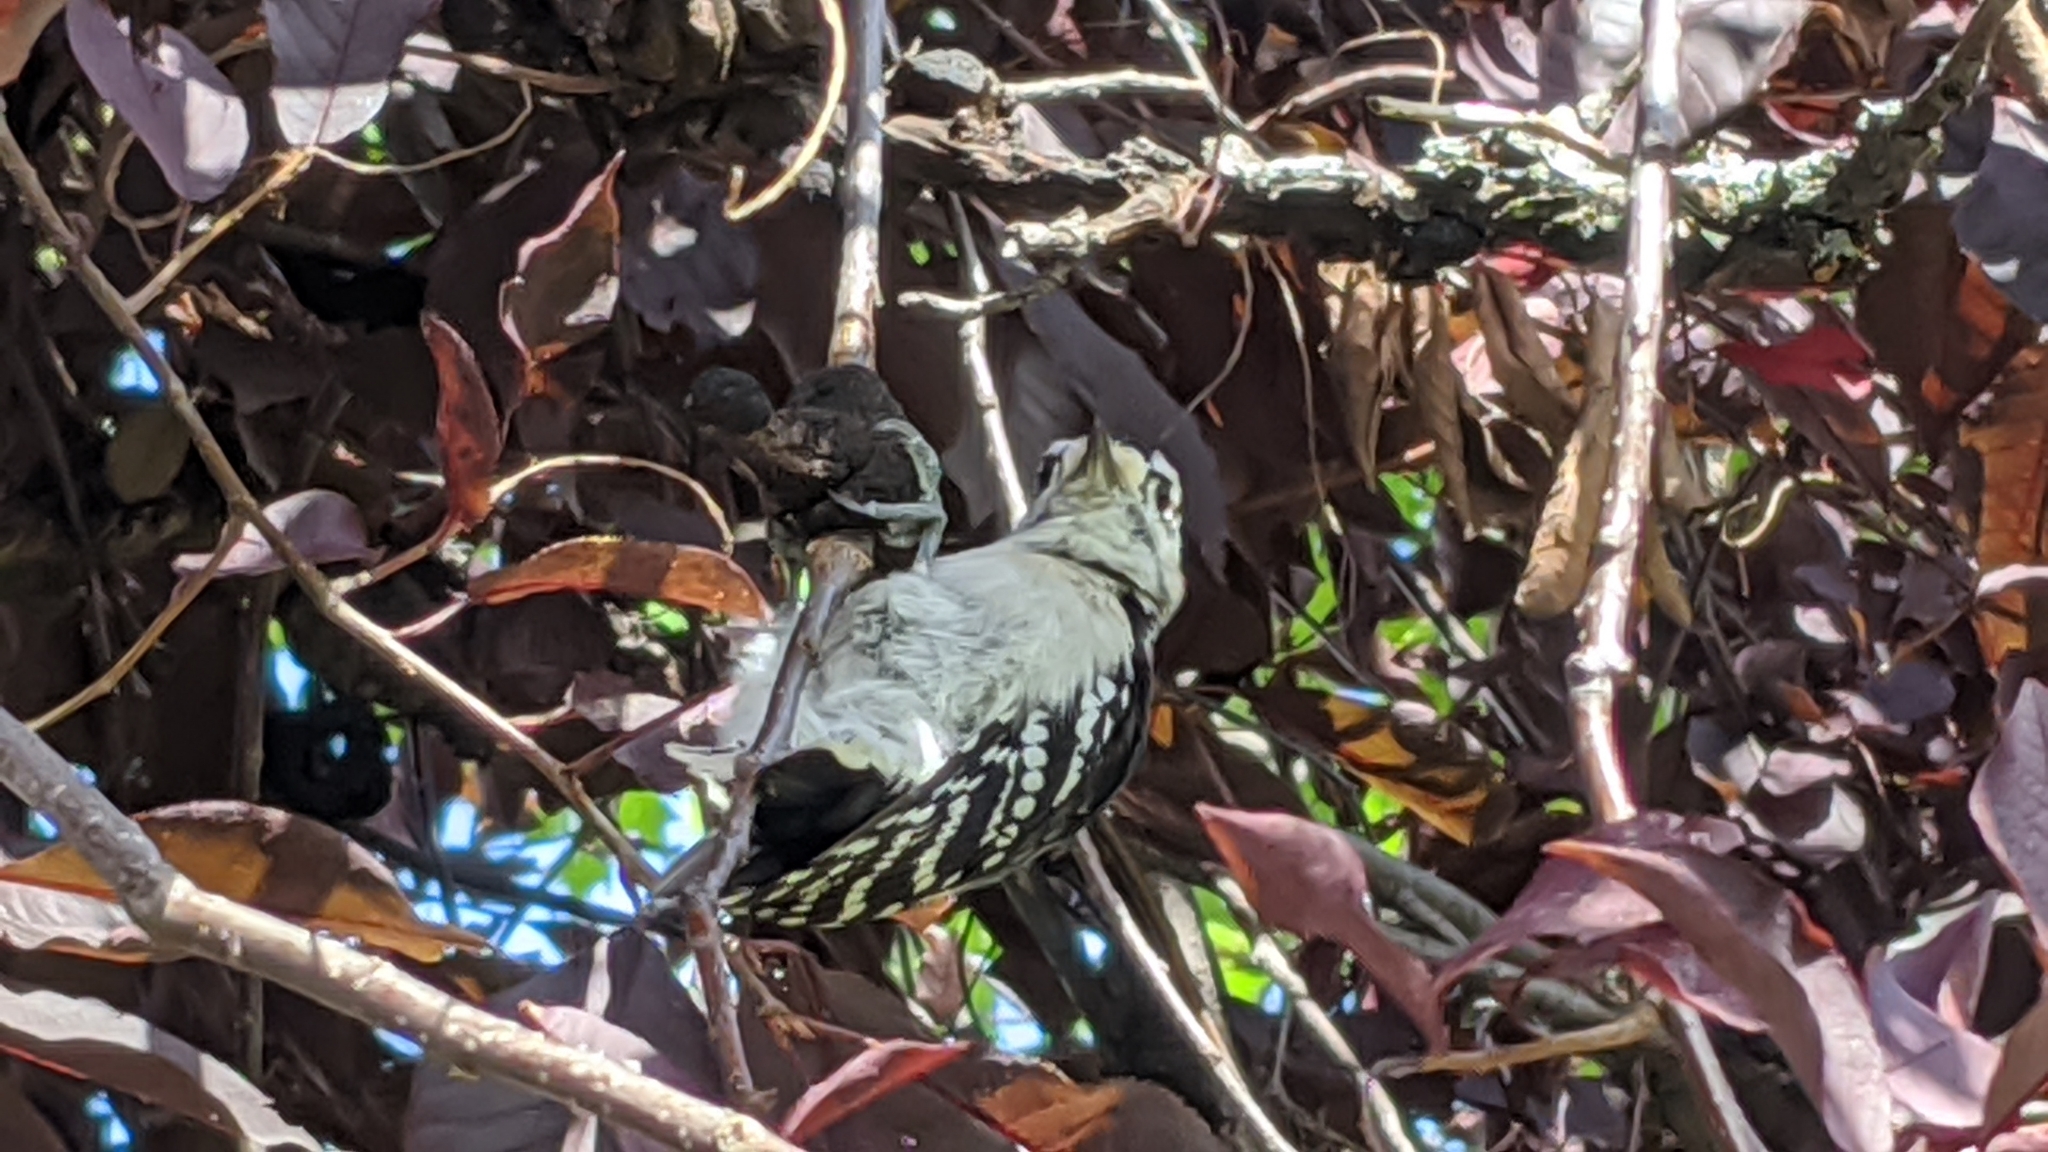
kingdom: Animalia
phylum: Chordata
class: Aves
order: Piciformes
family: Picidae
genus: Dryobates
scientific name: Dryobates pubescens
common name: Downy woodpecker
